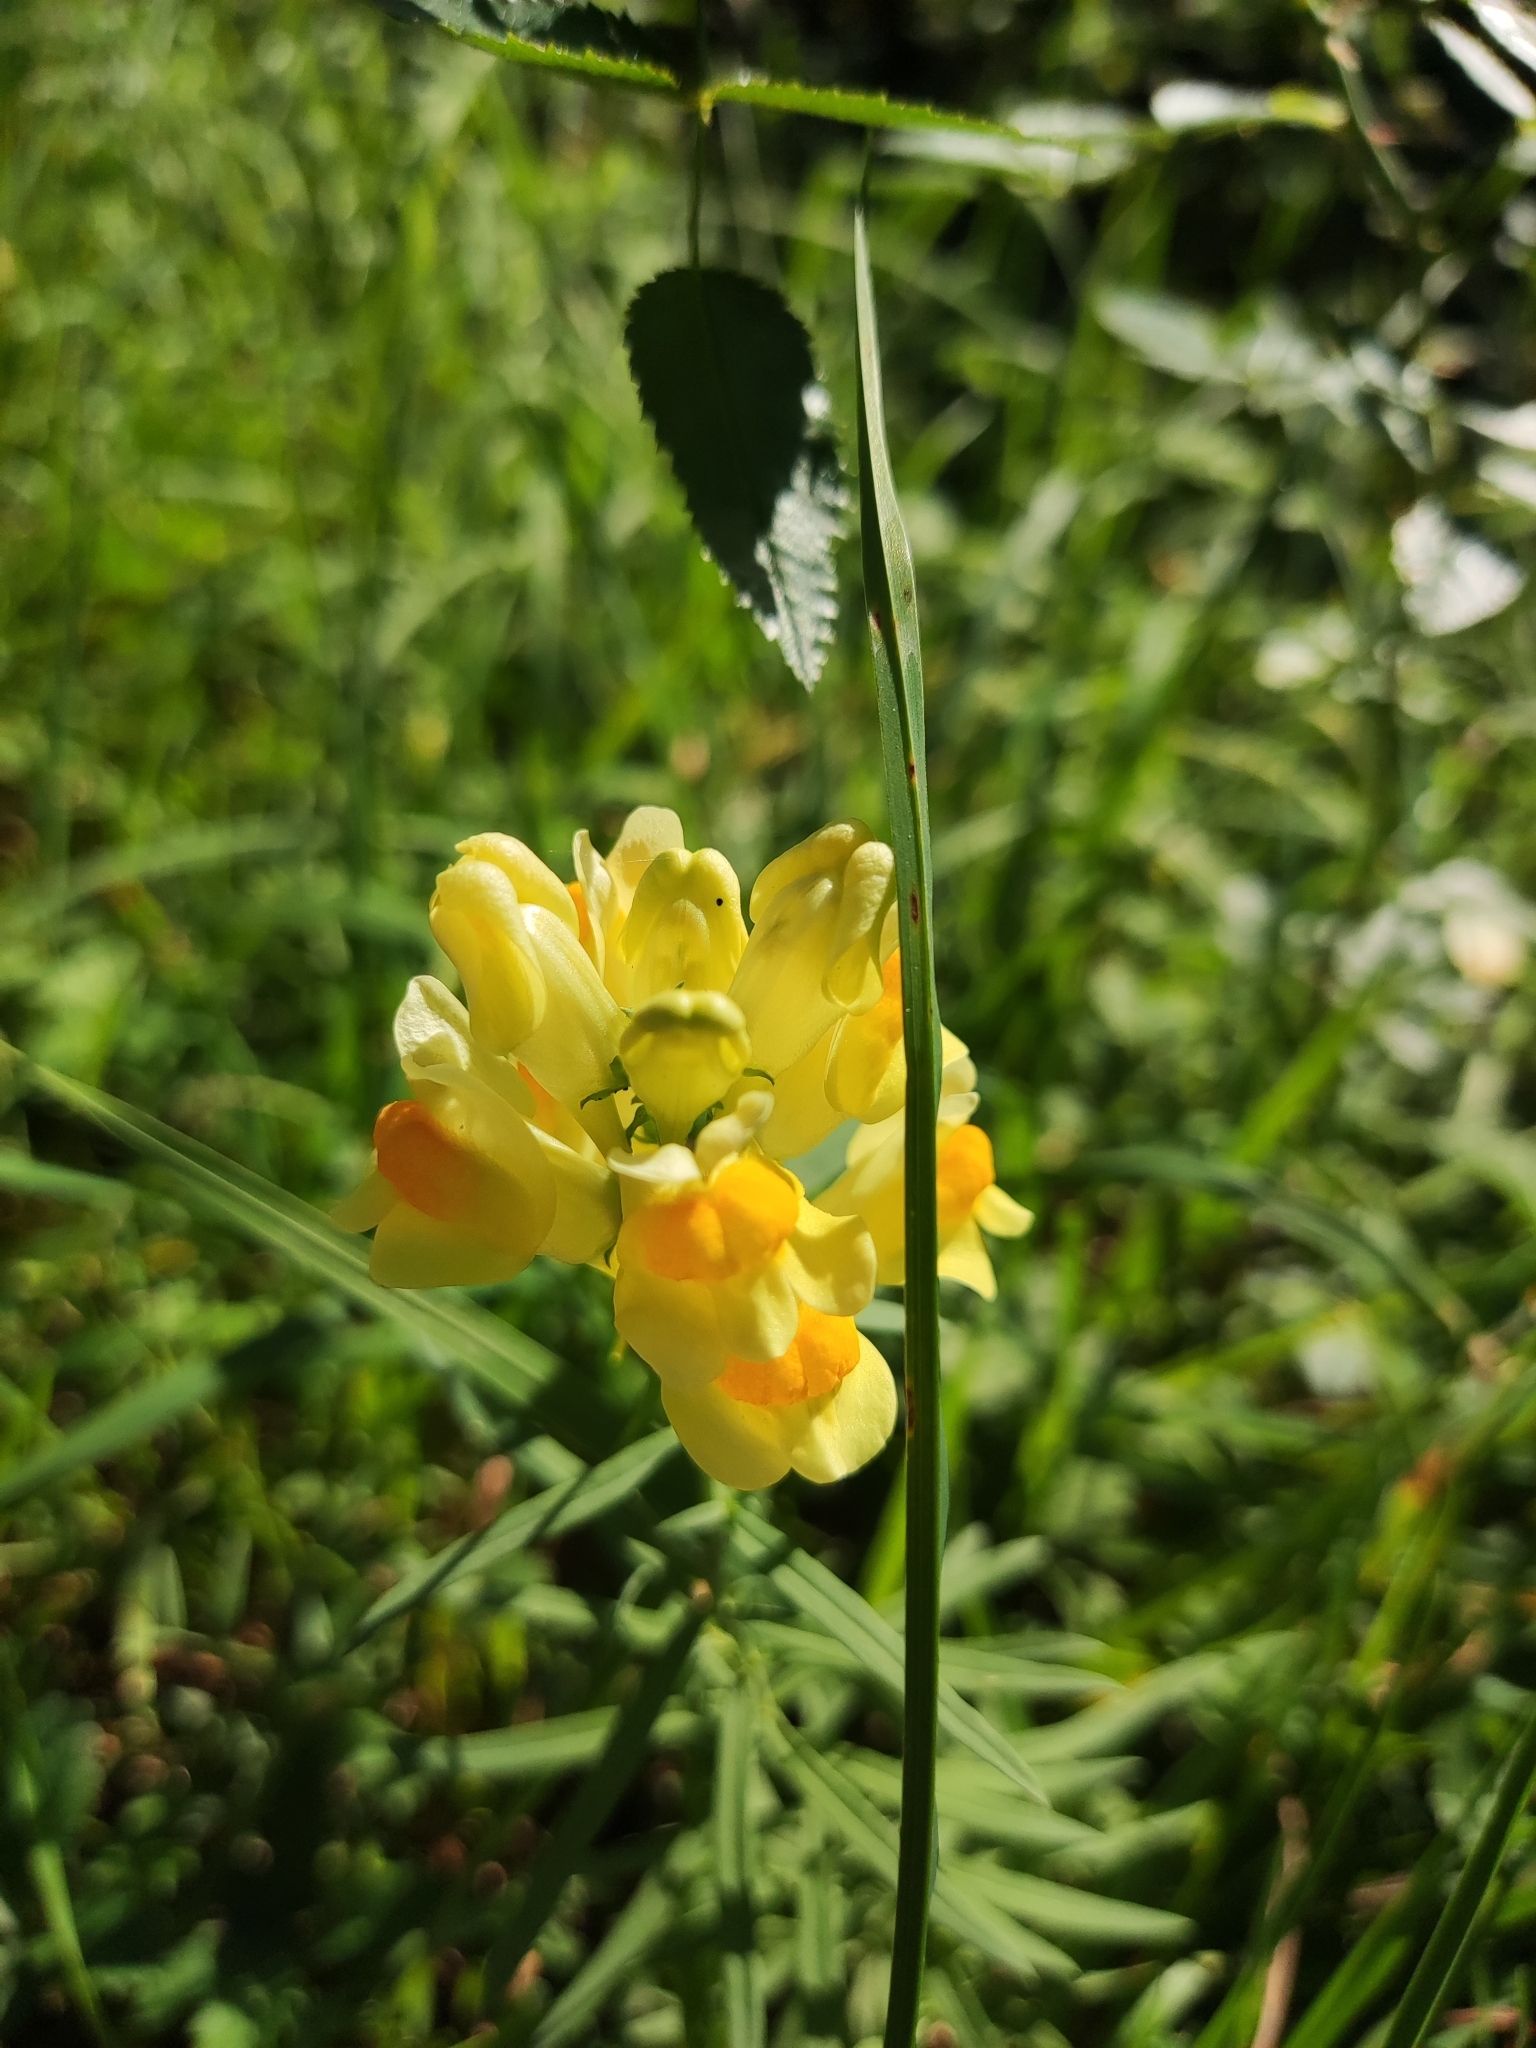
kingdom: Plantae
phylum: Tracheophyta
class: Magnoliopsida
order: Lamiales
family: Plantaginaceae
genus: Linaria
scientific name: Linaria vulgaris
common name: Butter and eggs
